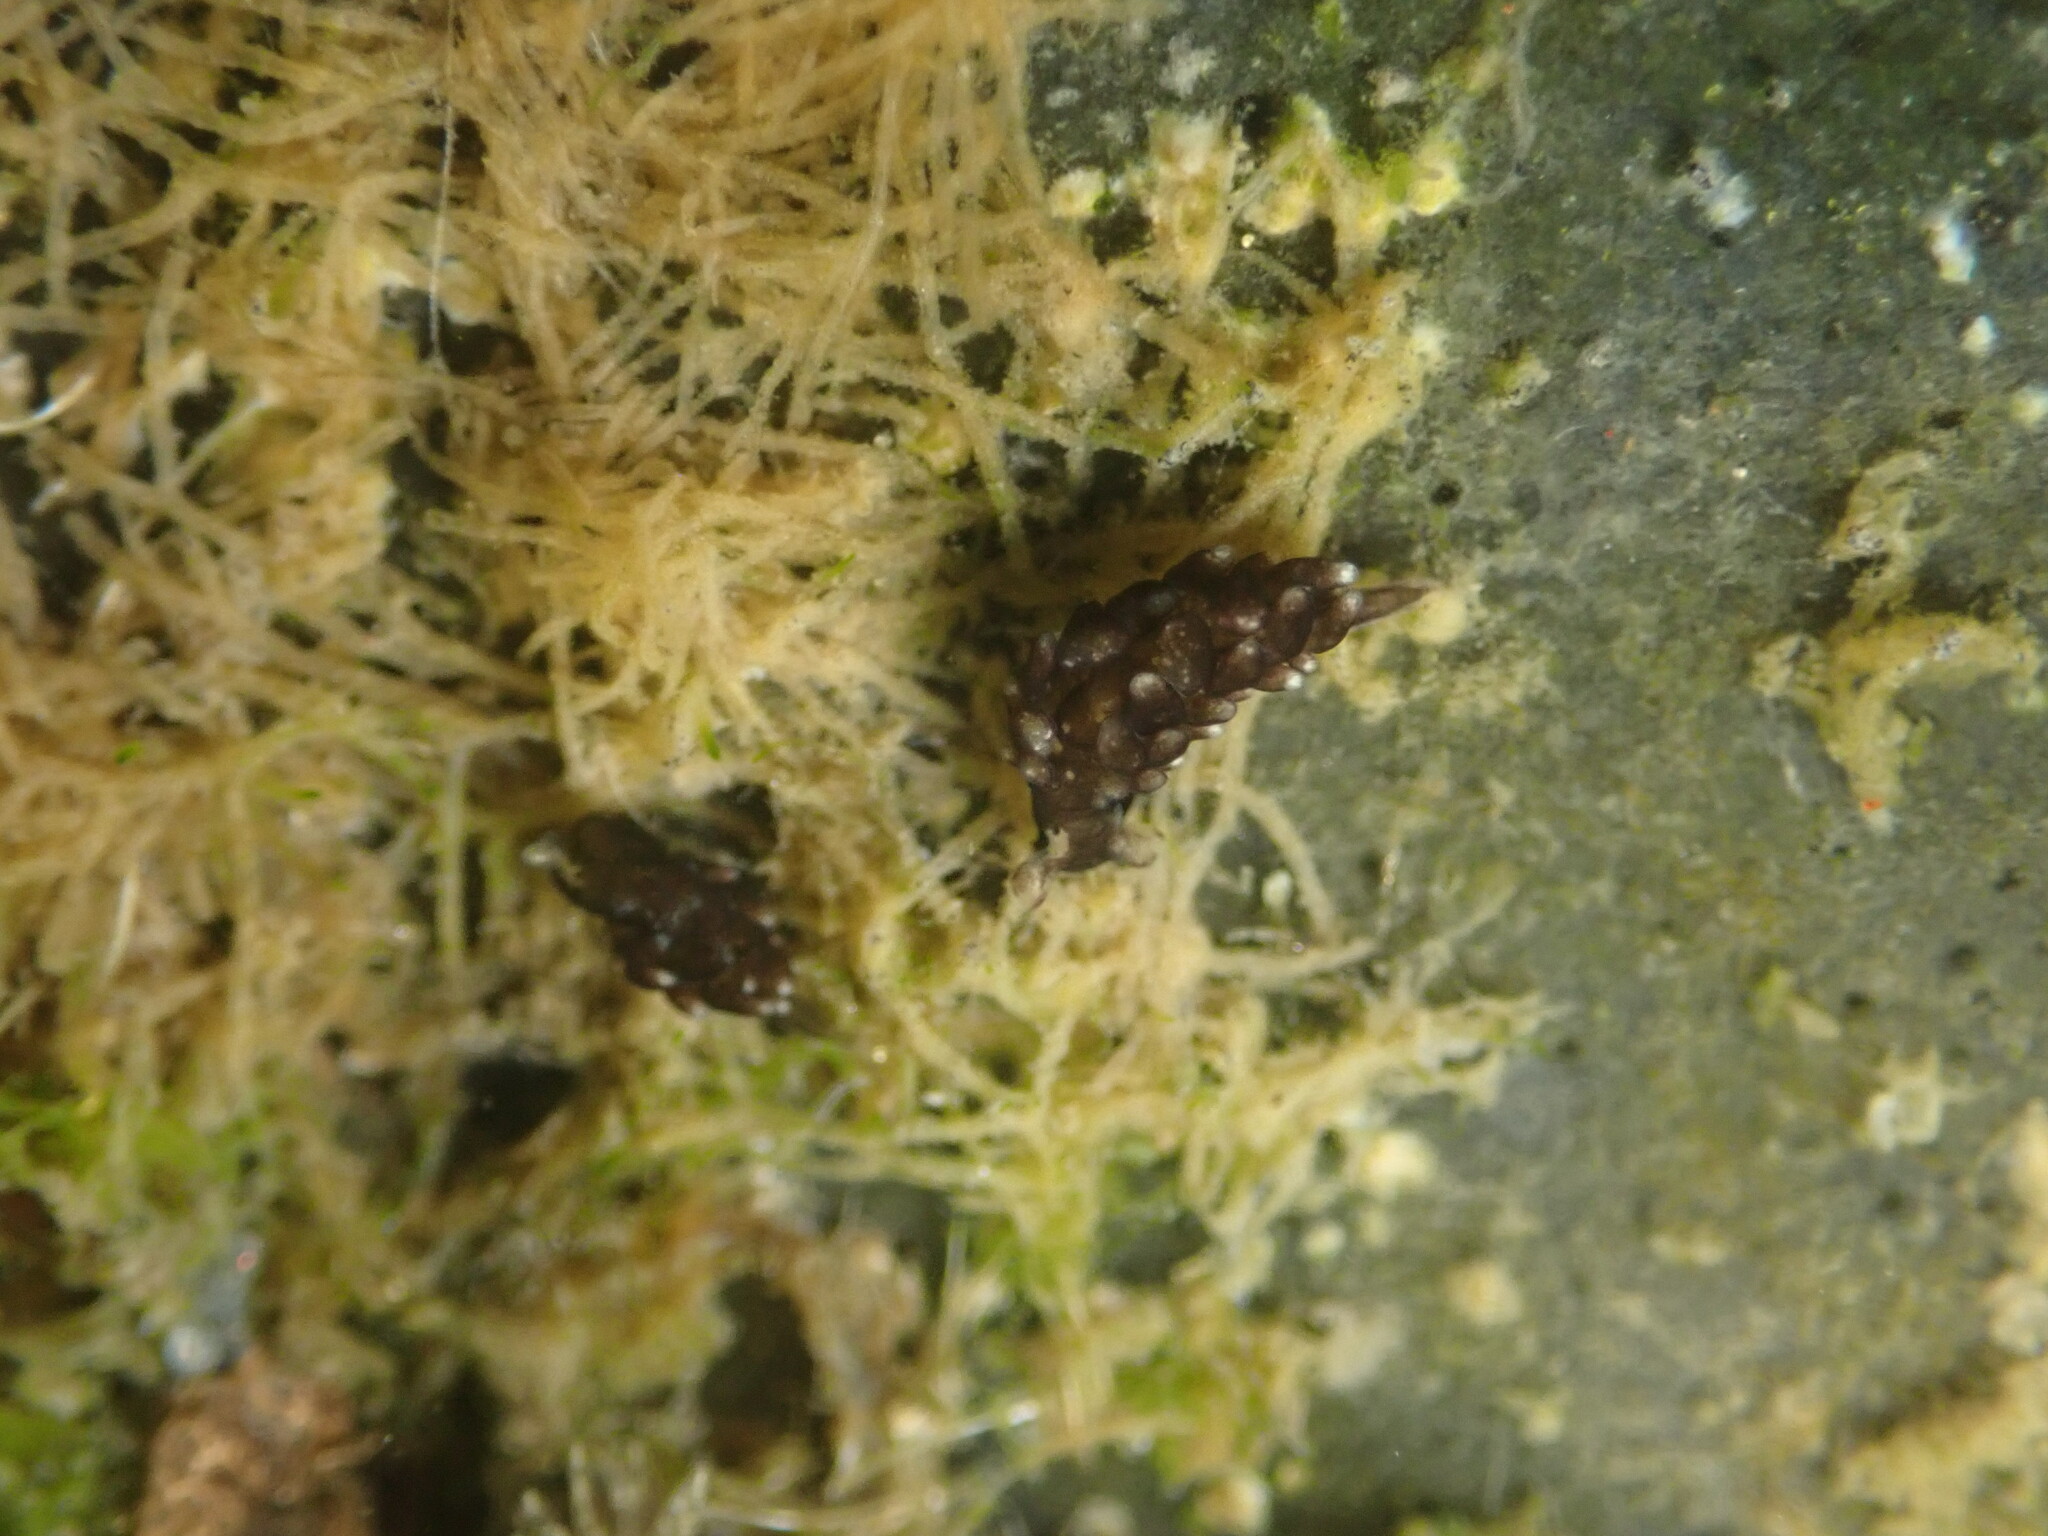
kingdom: Animalia
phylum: Mollusca
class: Gastropoda
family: Hermaeidae
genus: Aplysiopsis
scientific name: Aplysiopsis enteromorphae
